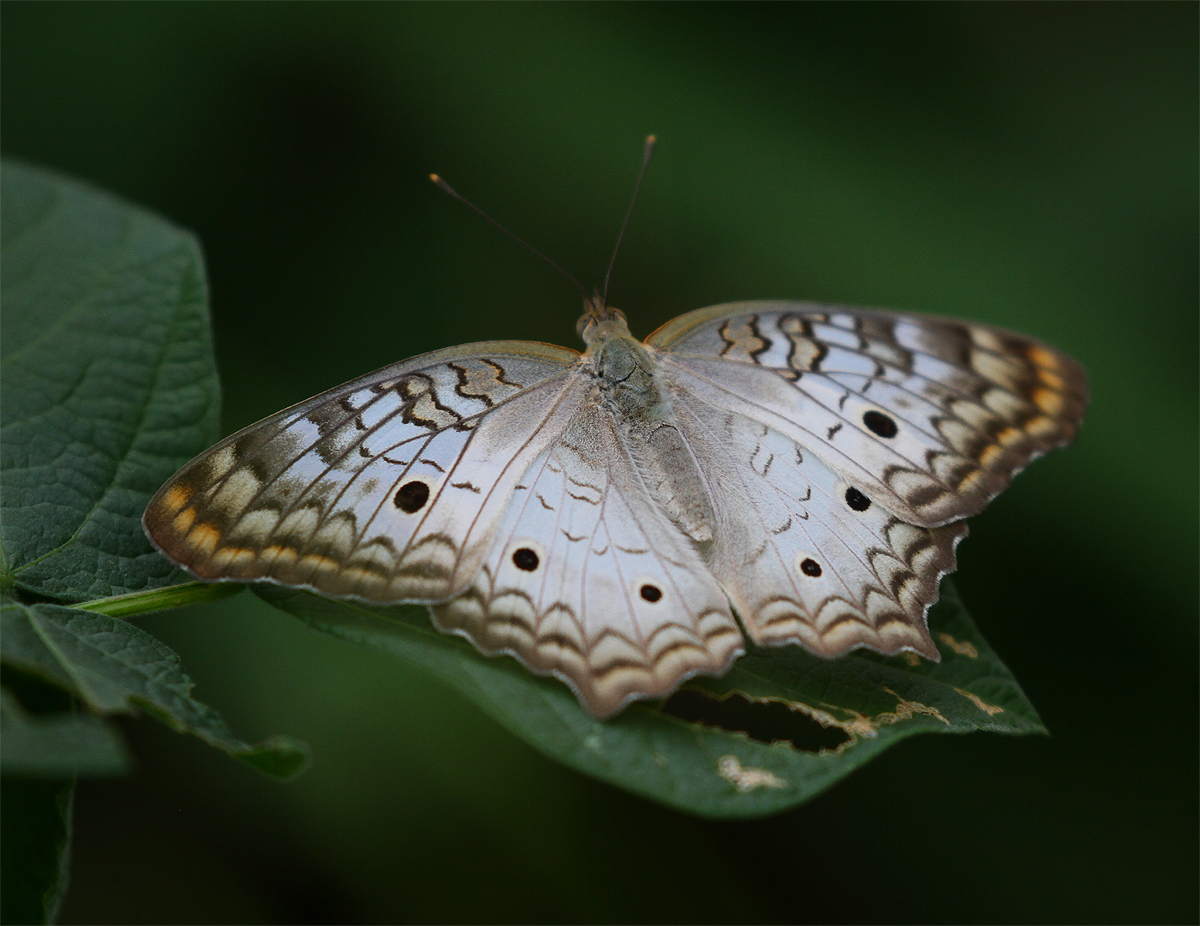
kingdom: Animalia
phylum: Arthropoda
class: Insecta
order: Lepidoptera
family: Nymphalidae
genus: Anartia
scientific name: Anartia jatrophae
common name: White peacock
